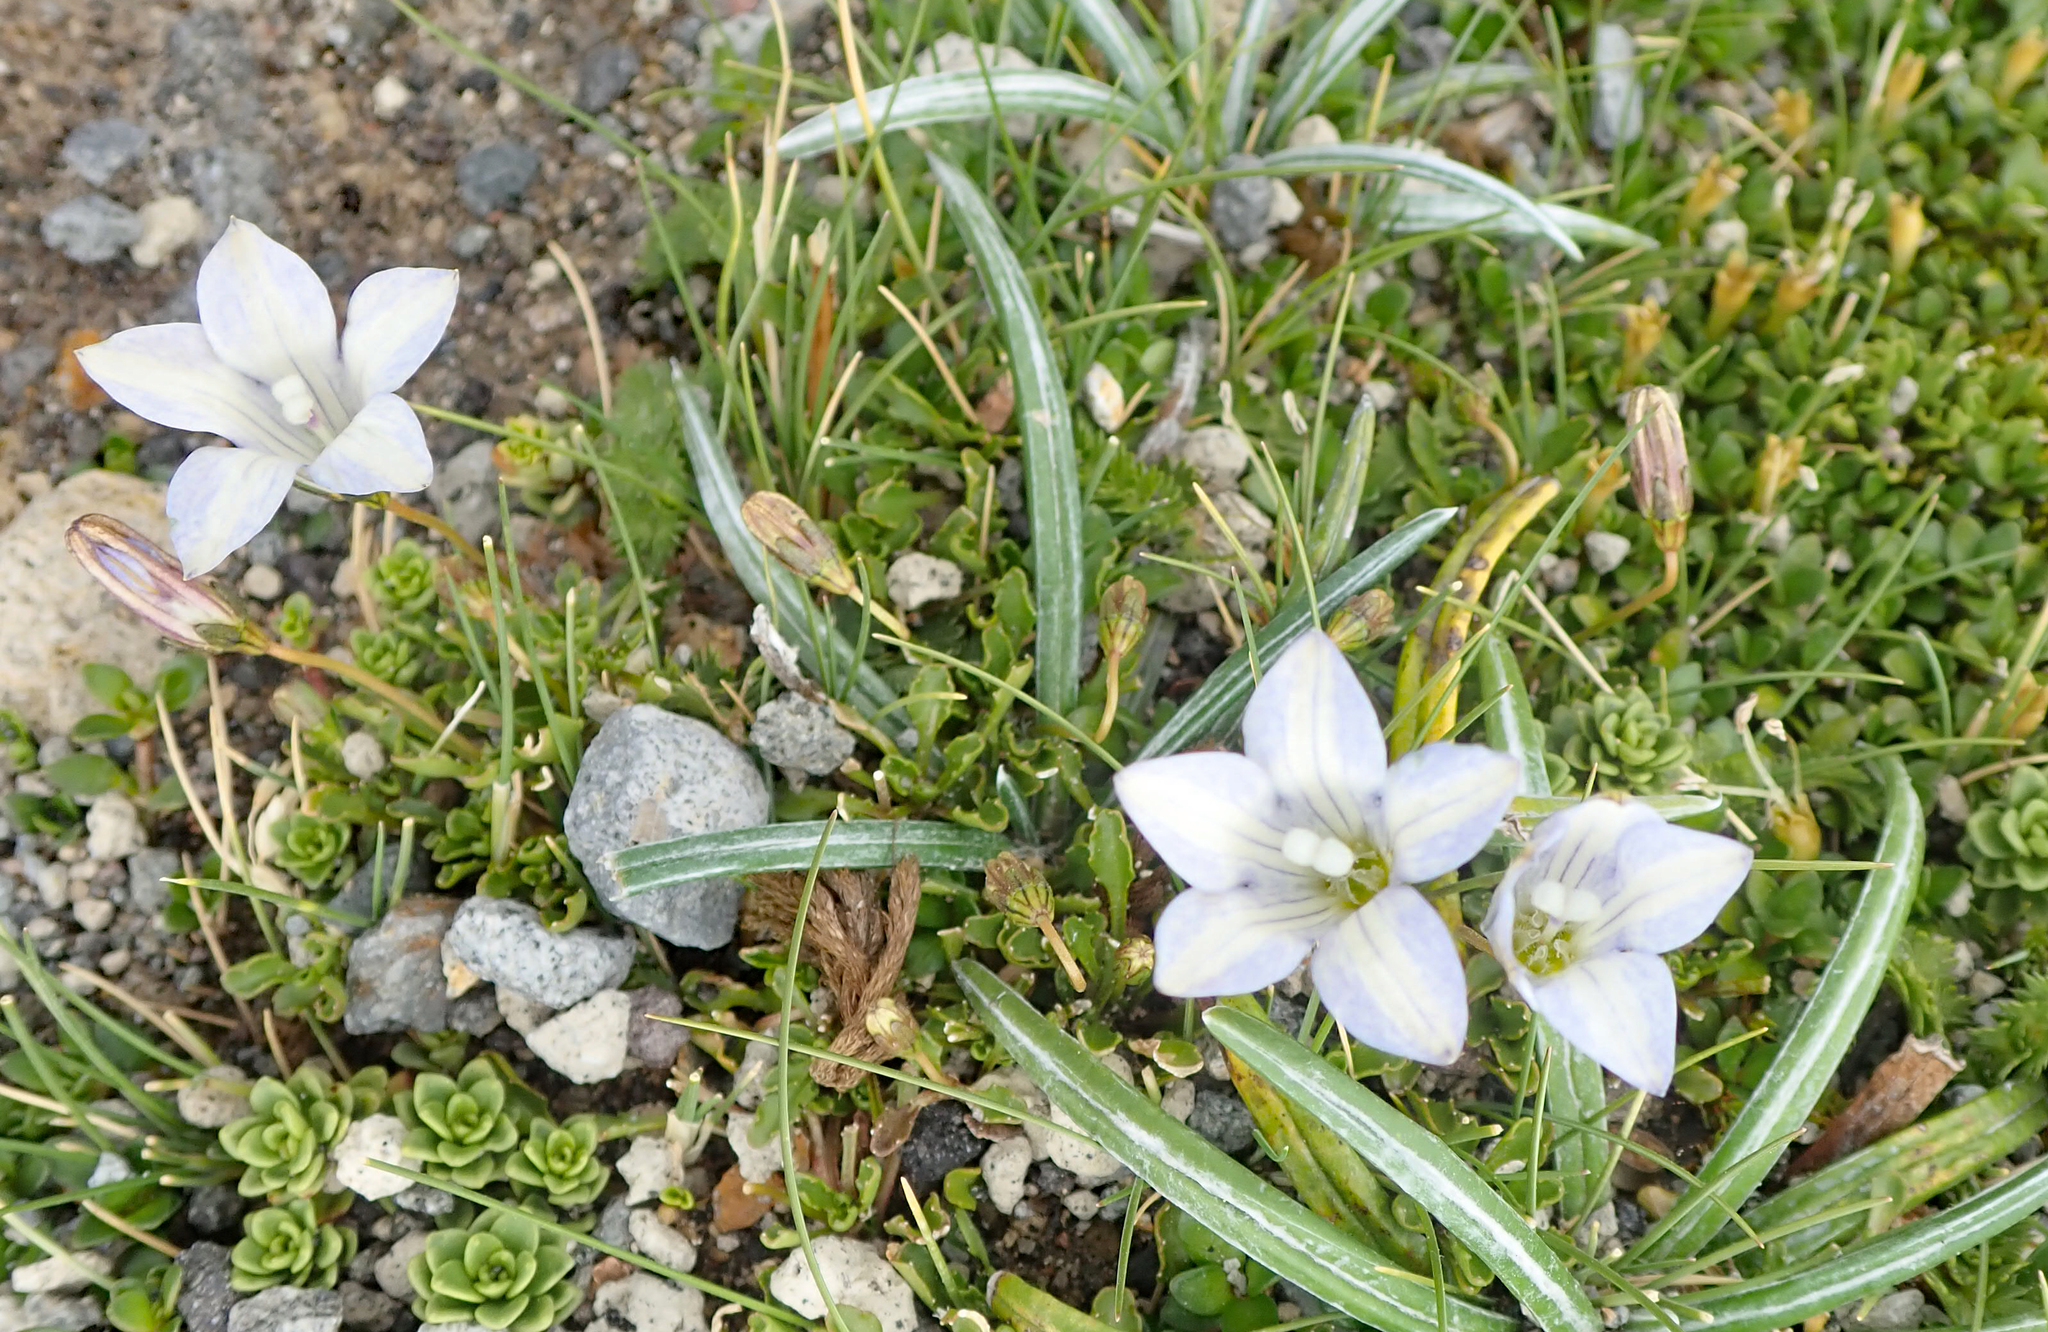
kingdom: Plantae
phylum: Tracheophyta
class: Magnoliopsida
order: Asterales
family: Campanulaceae
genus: Wahlenbergia
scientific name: Wahlenbergia pygmaea
